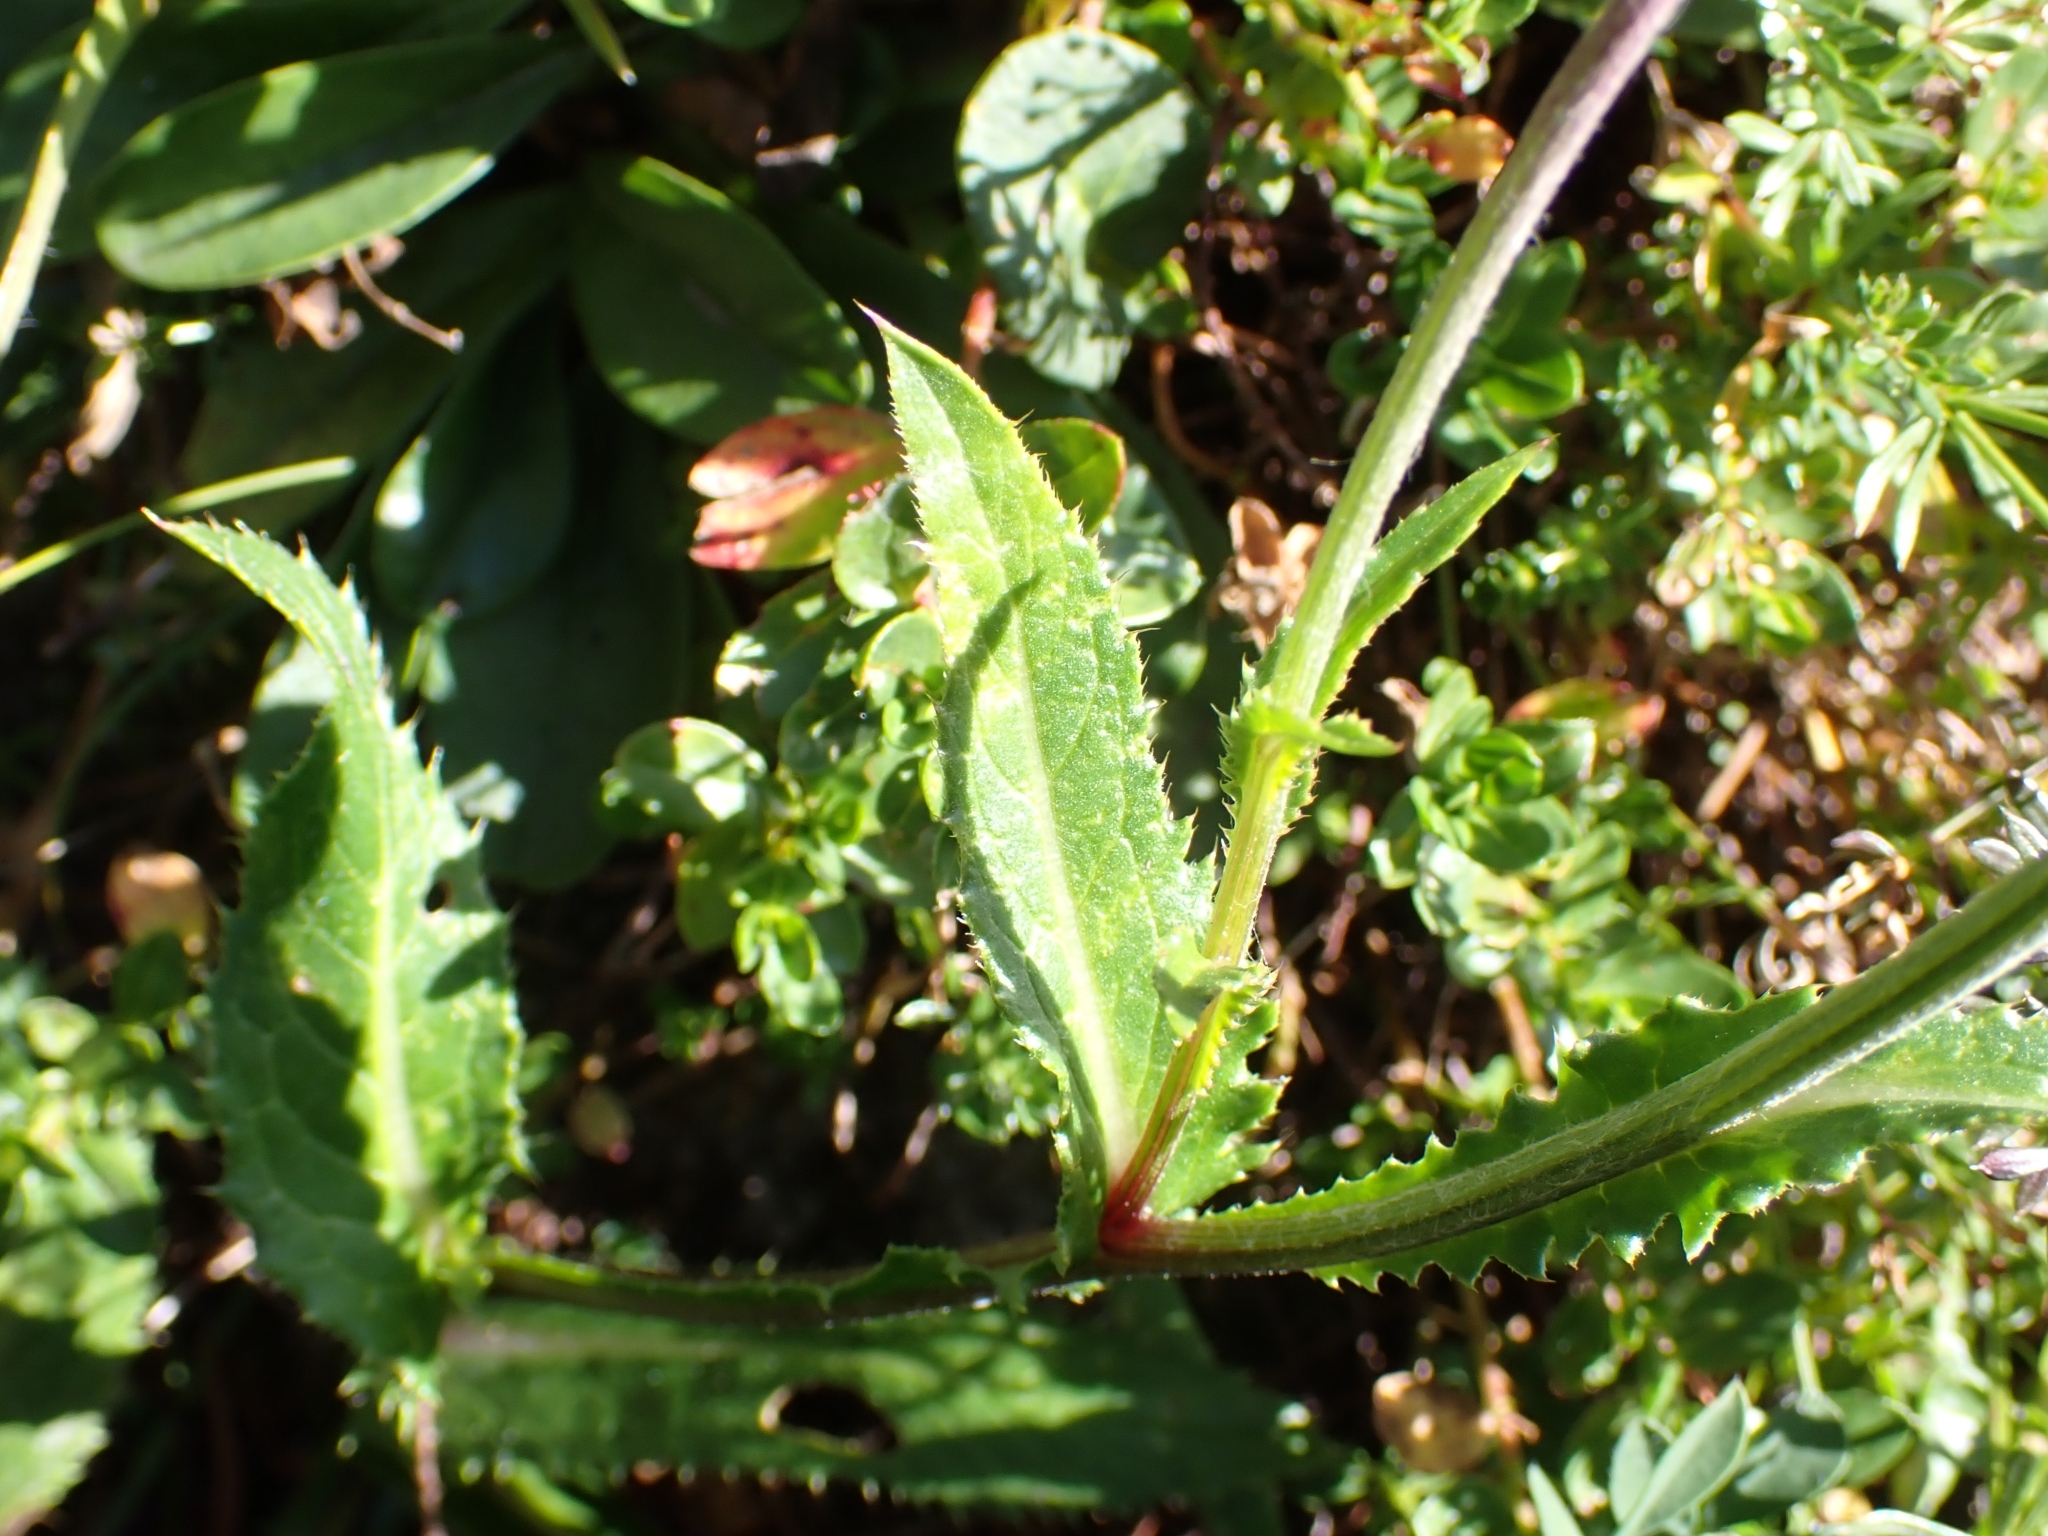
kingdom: Plantae
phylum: Tracheophyta
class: Magnoliopsida
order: Asterales
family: Asteraceae
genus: Carduus
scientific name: Carduus defloratus
